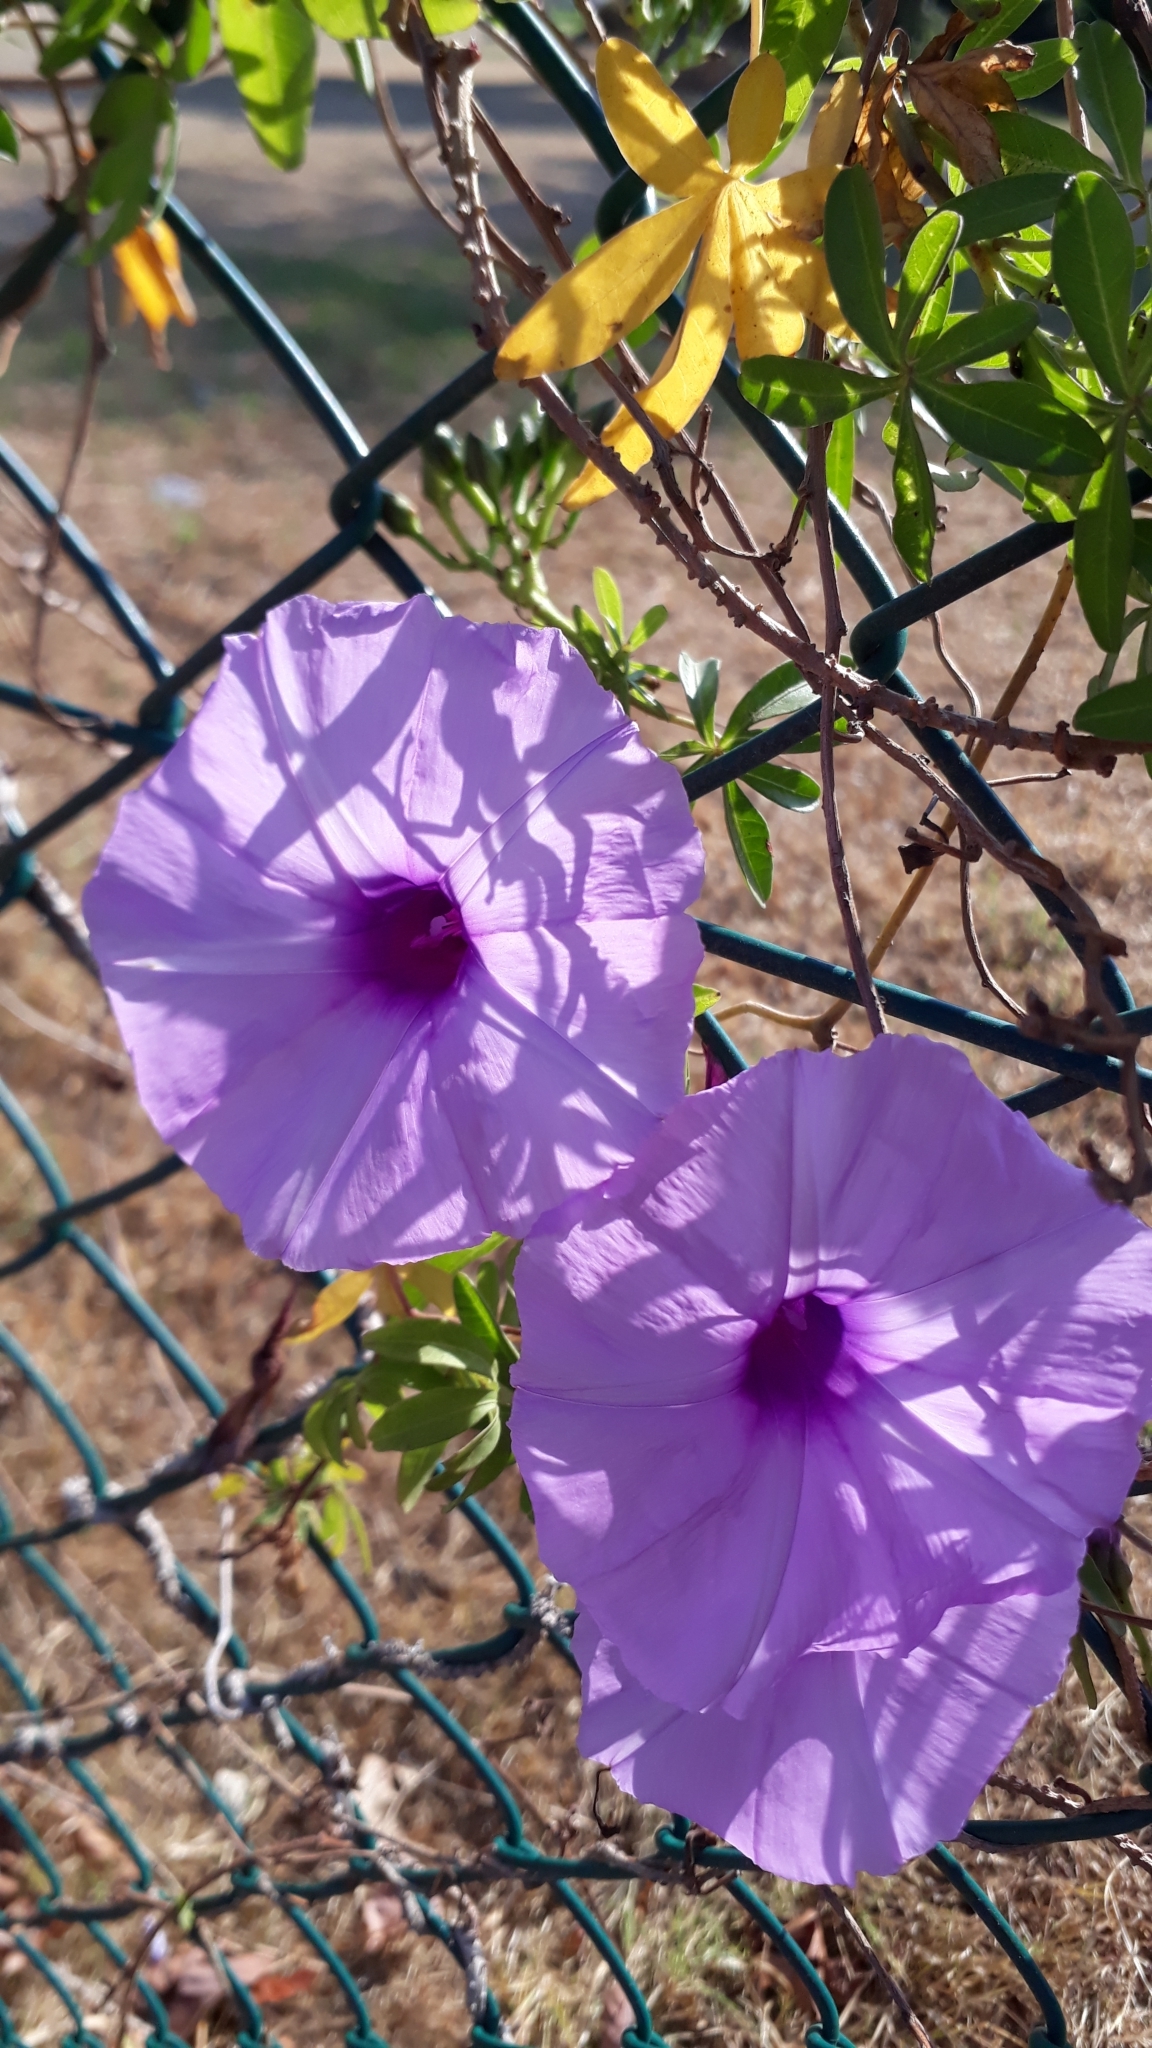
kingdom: Plantae
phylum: Tracheophyta
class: Magnoliopsida
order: Solanales
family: Convolvulaceae
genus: Ipomoea
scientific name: Ipomoea cairica
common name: Mile a minute vine
